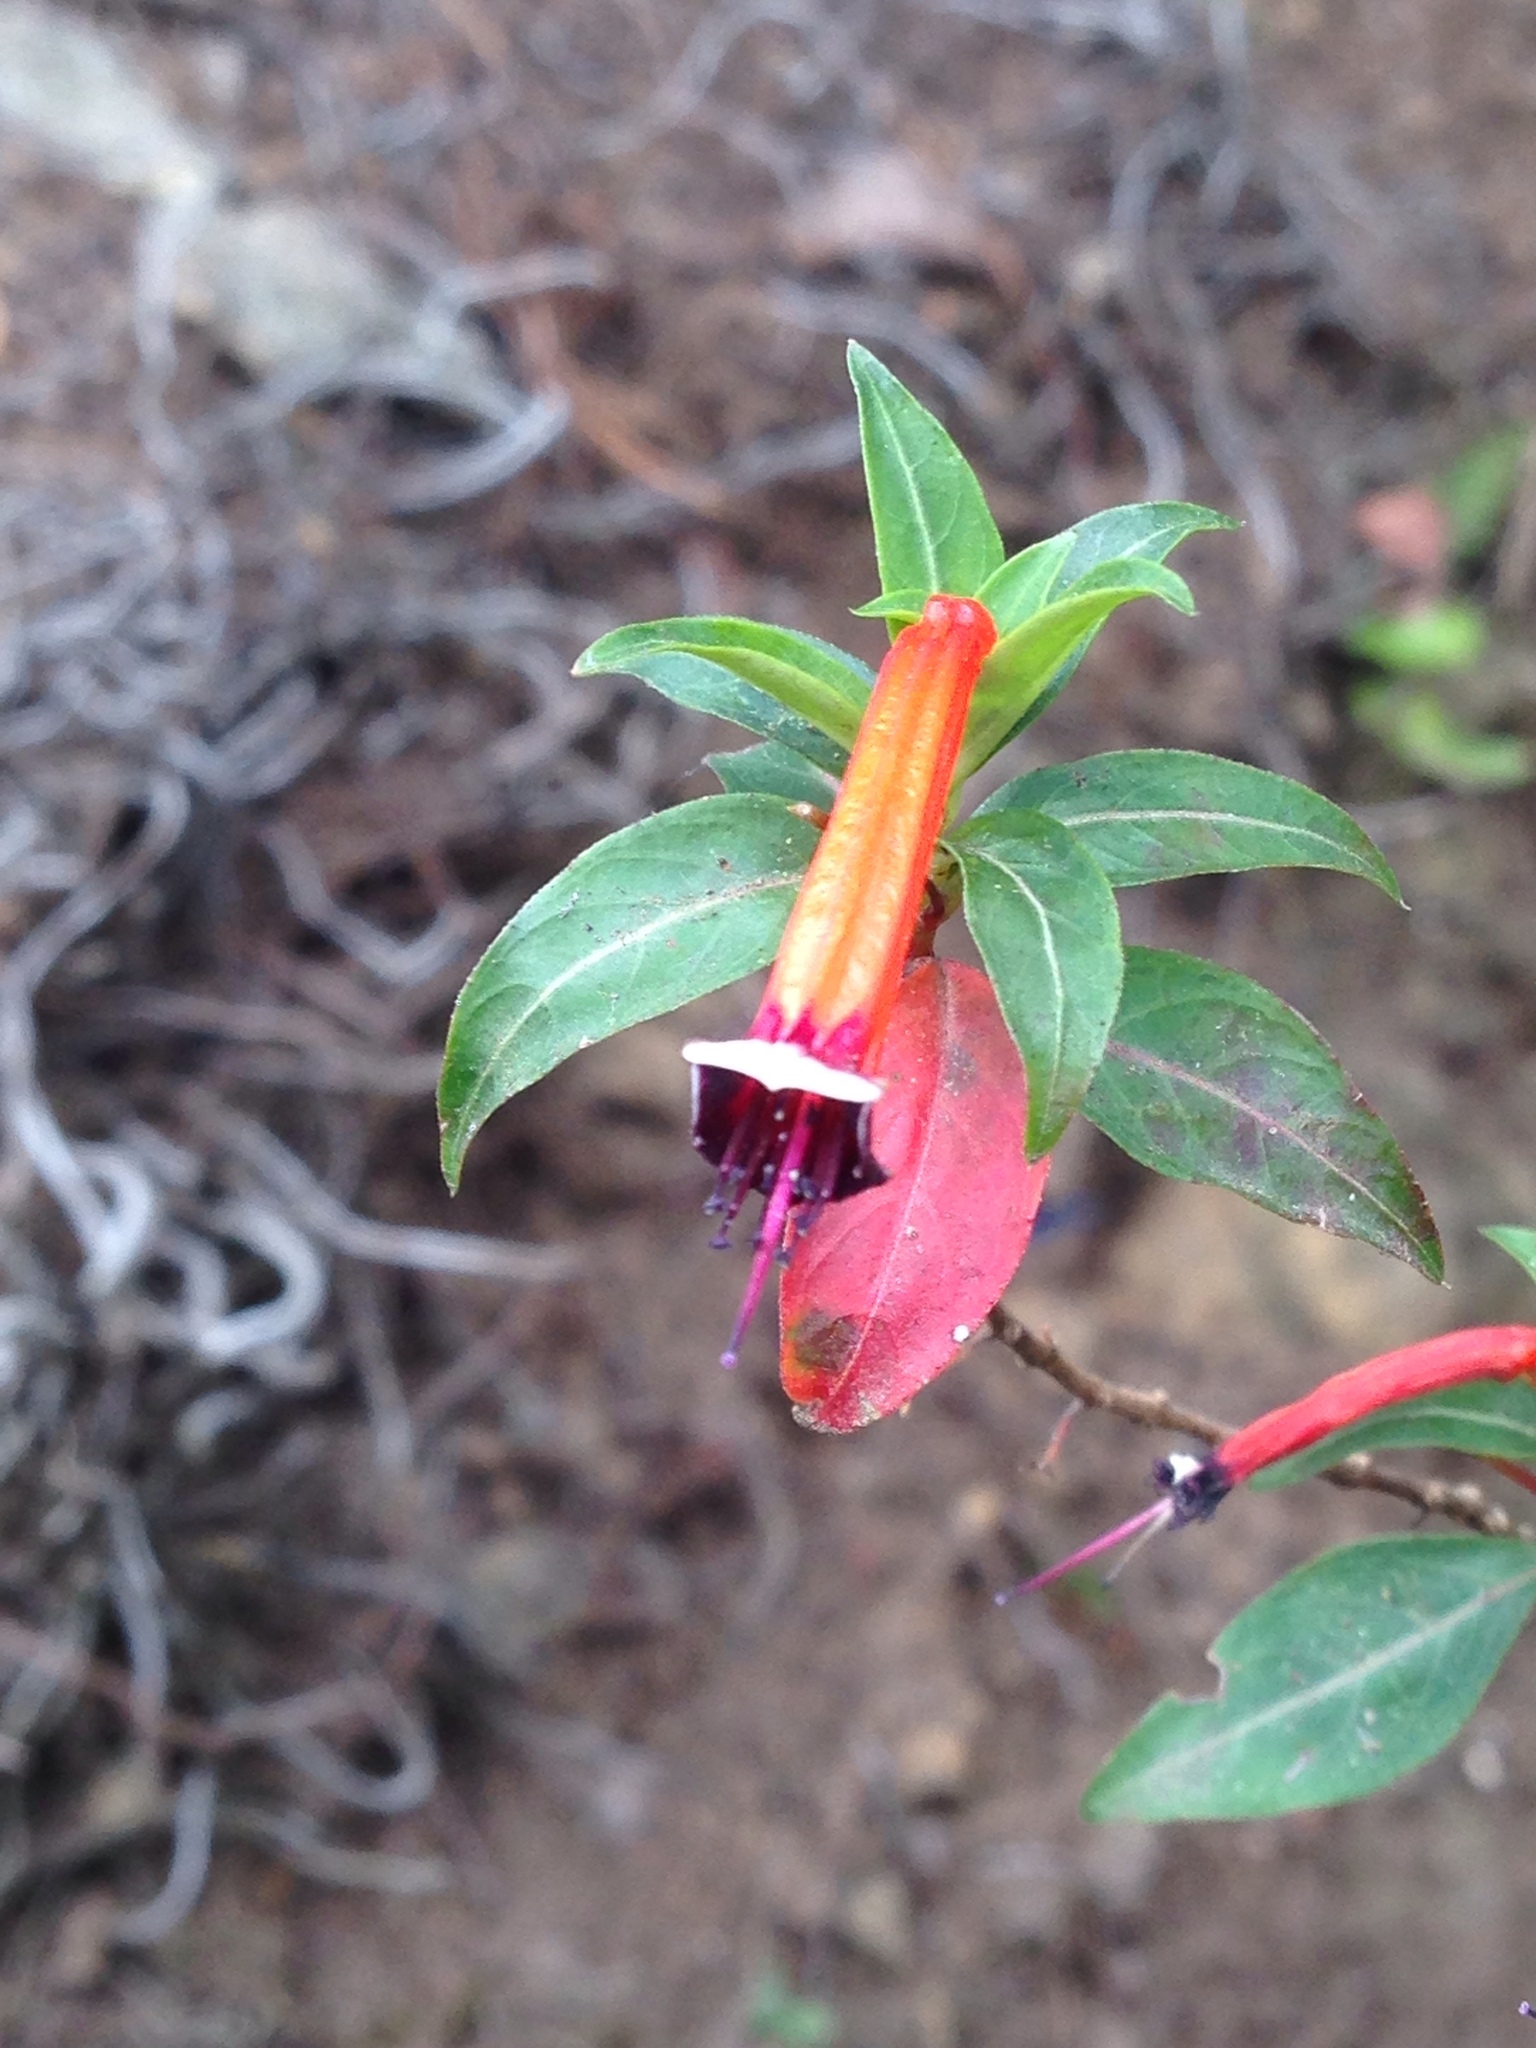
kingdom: Plantae
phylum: Tracheophyta
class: Magnoliopsida
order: Myrtales
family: Lythraceae
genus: Cuphea
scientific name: Cuphea ignea
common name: Cigar flower
